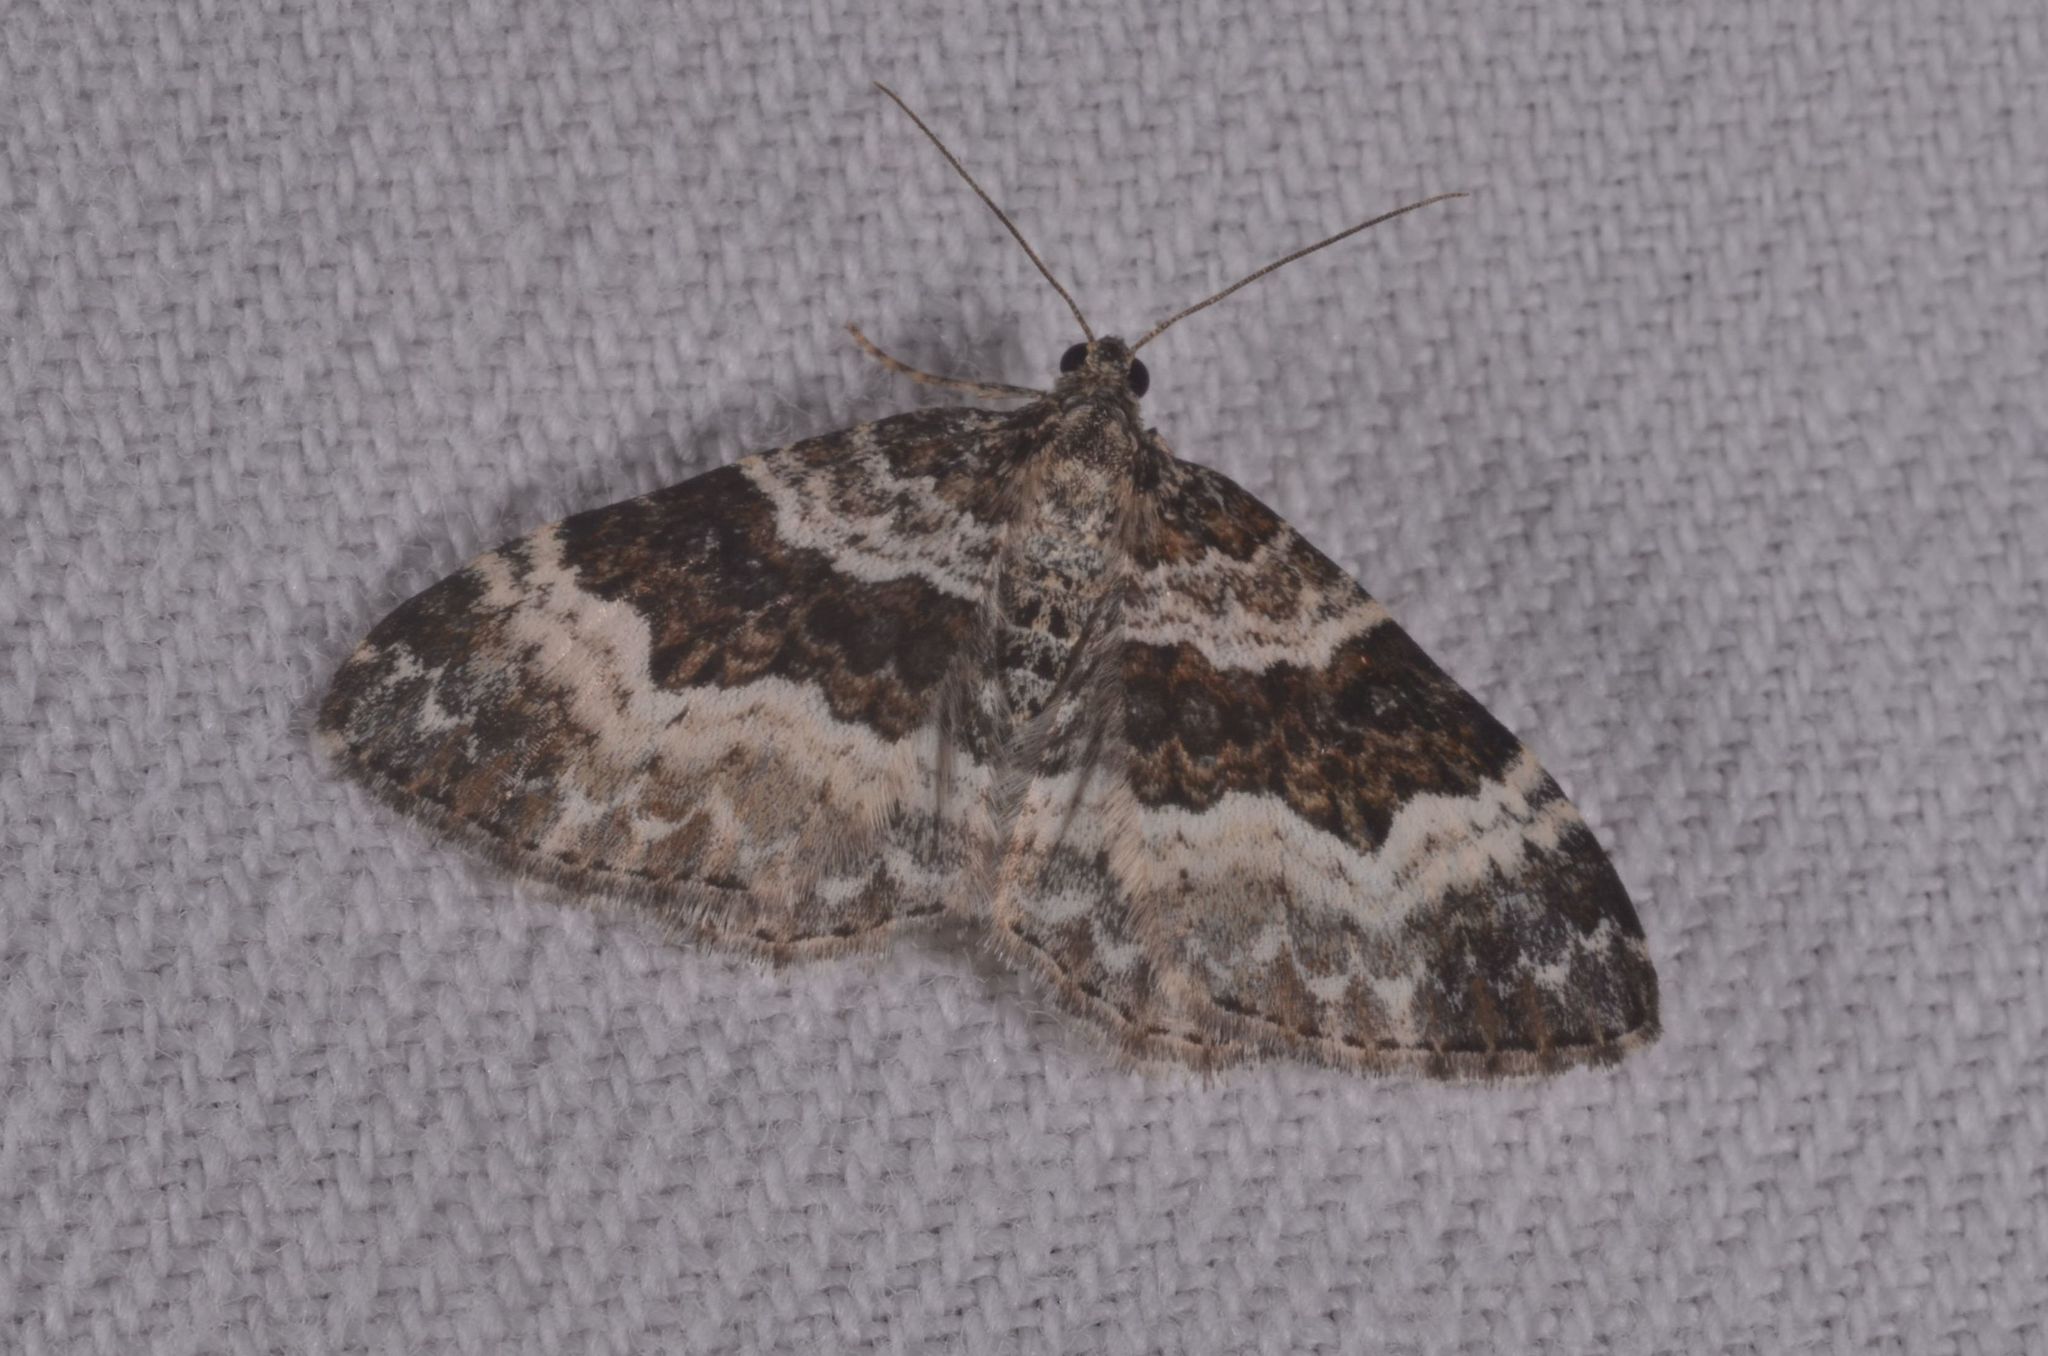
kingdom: Animalia
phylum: Arthropoda
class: Insecta
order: Lepidoptera
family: Geometridae
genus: Epirrhoe
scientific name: Epirrhoe alternata
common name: Common carpet
